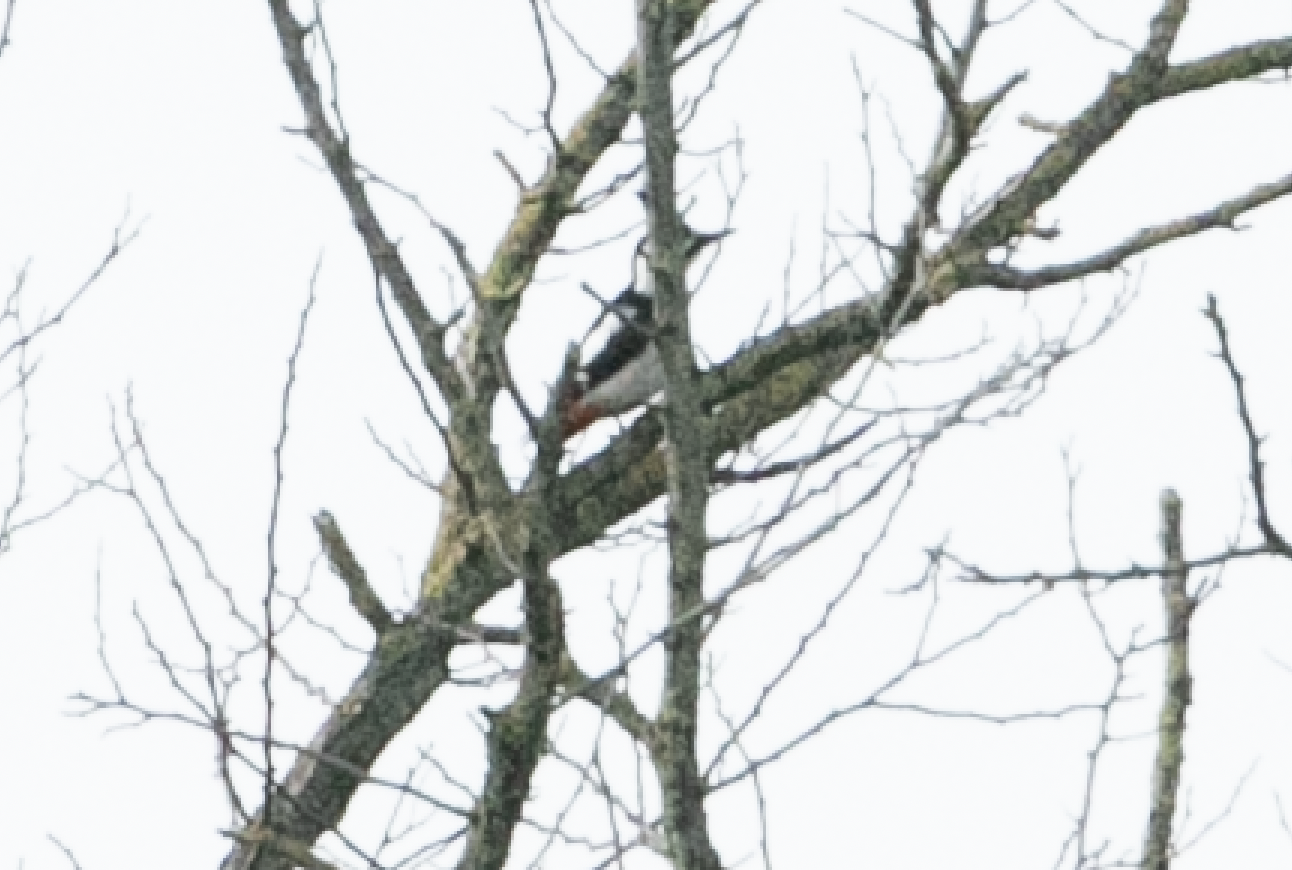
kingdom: Animalia
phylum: Chordata
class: Aves
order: Piciformes
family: Picidae
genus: Dendrocopos
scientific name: Dendrocopos major
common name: Great spotted woodpecker
